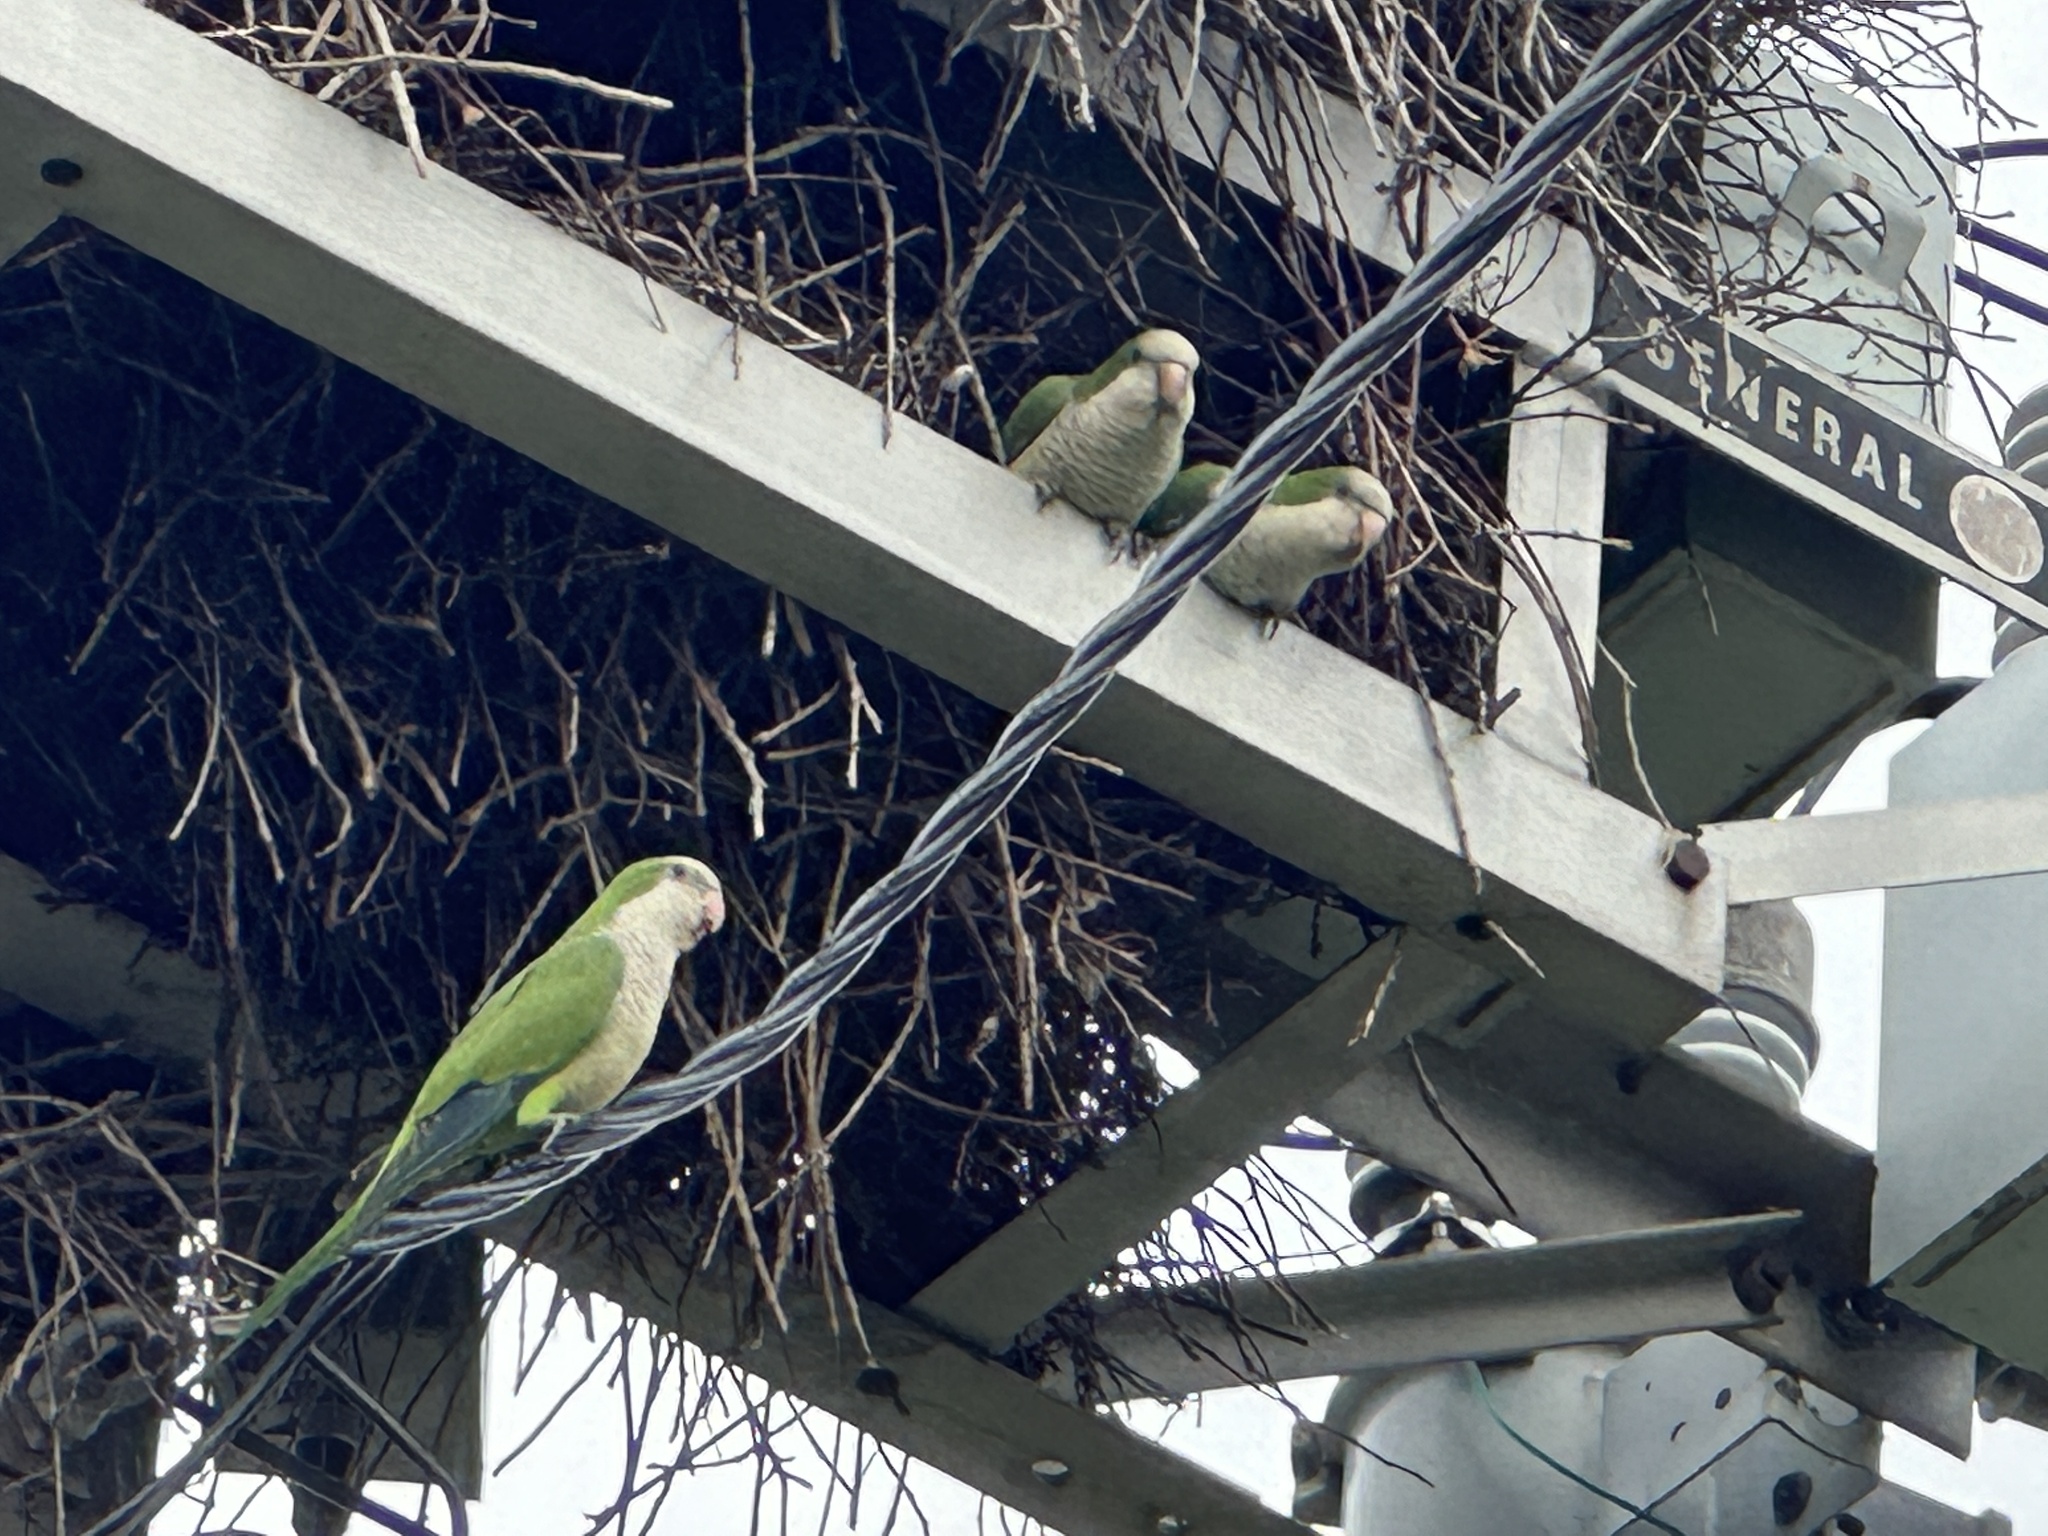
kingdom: Animalia
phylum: Chordata
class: Aves
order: Psittaciformes
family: Psittacidae
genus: Myiopsitta
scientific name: Myiopsitta monachus
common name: Monk parakeet
